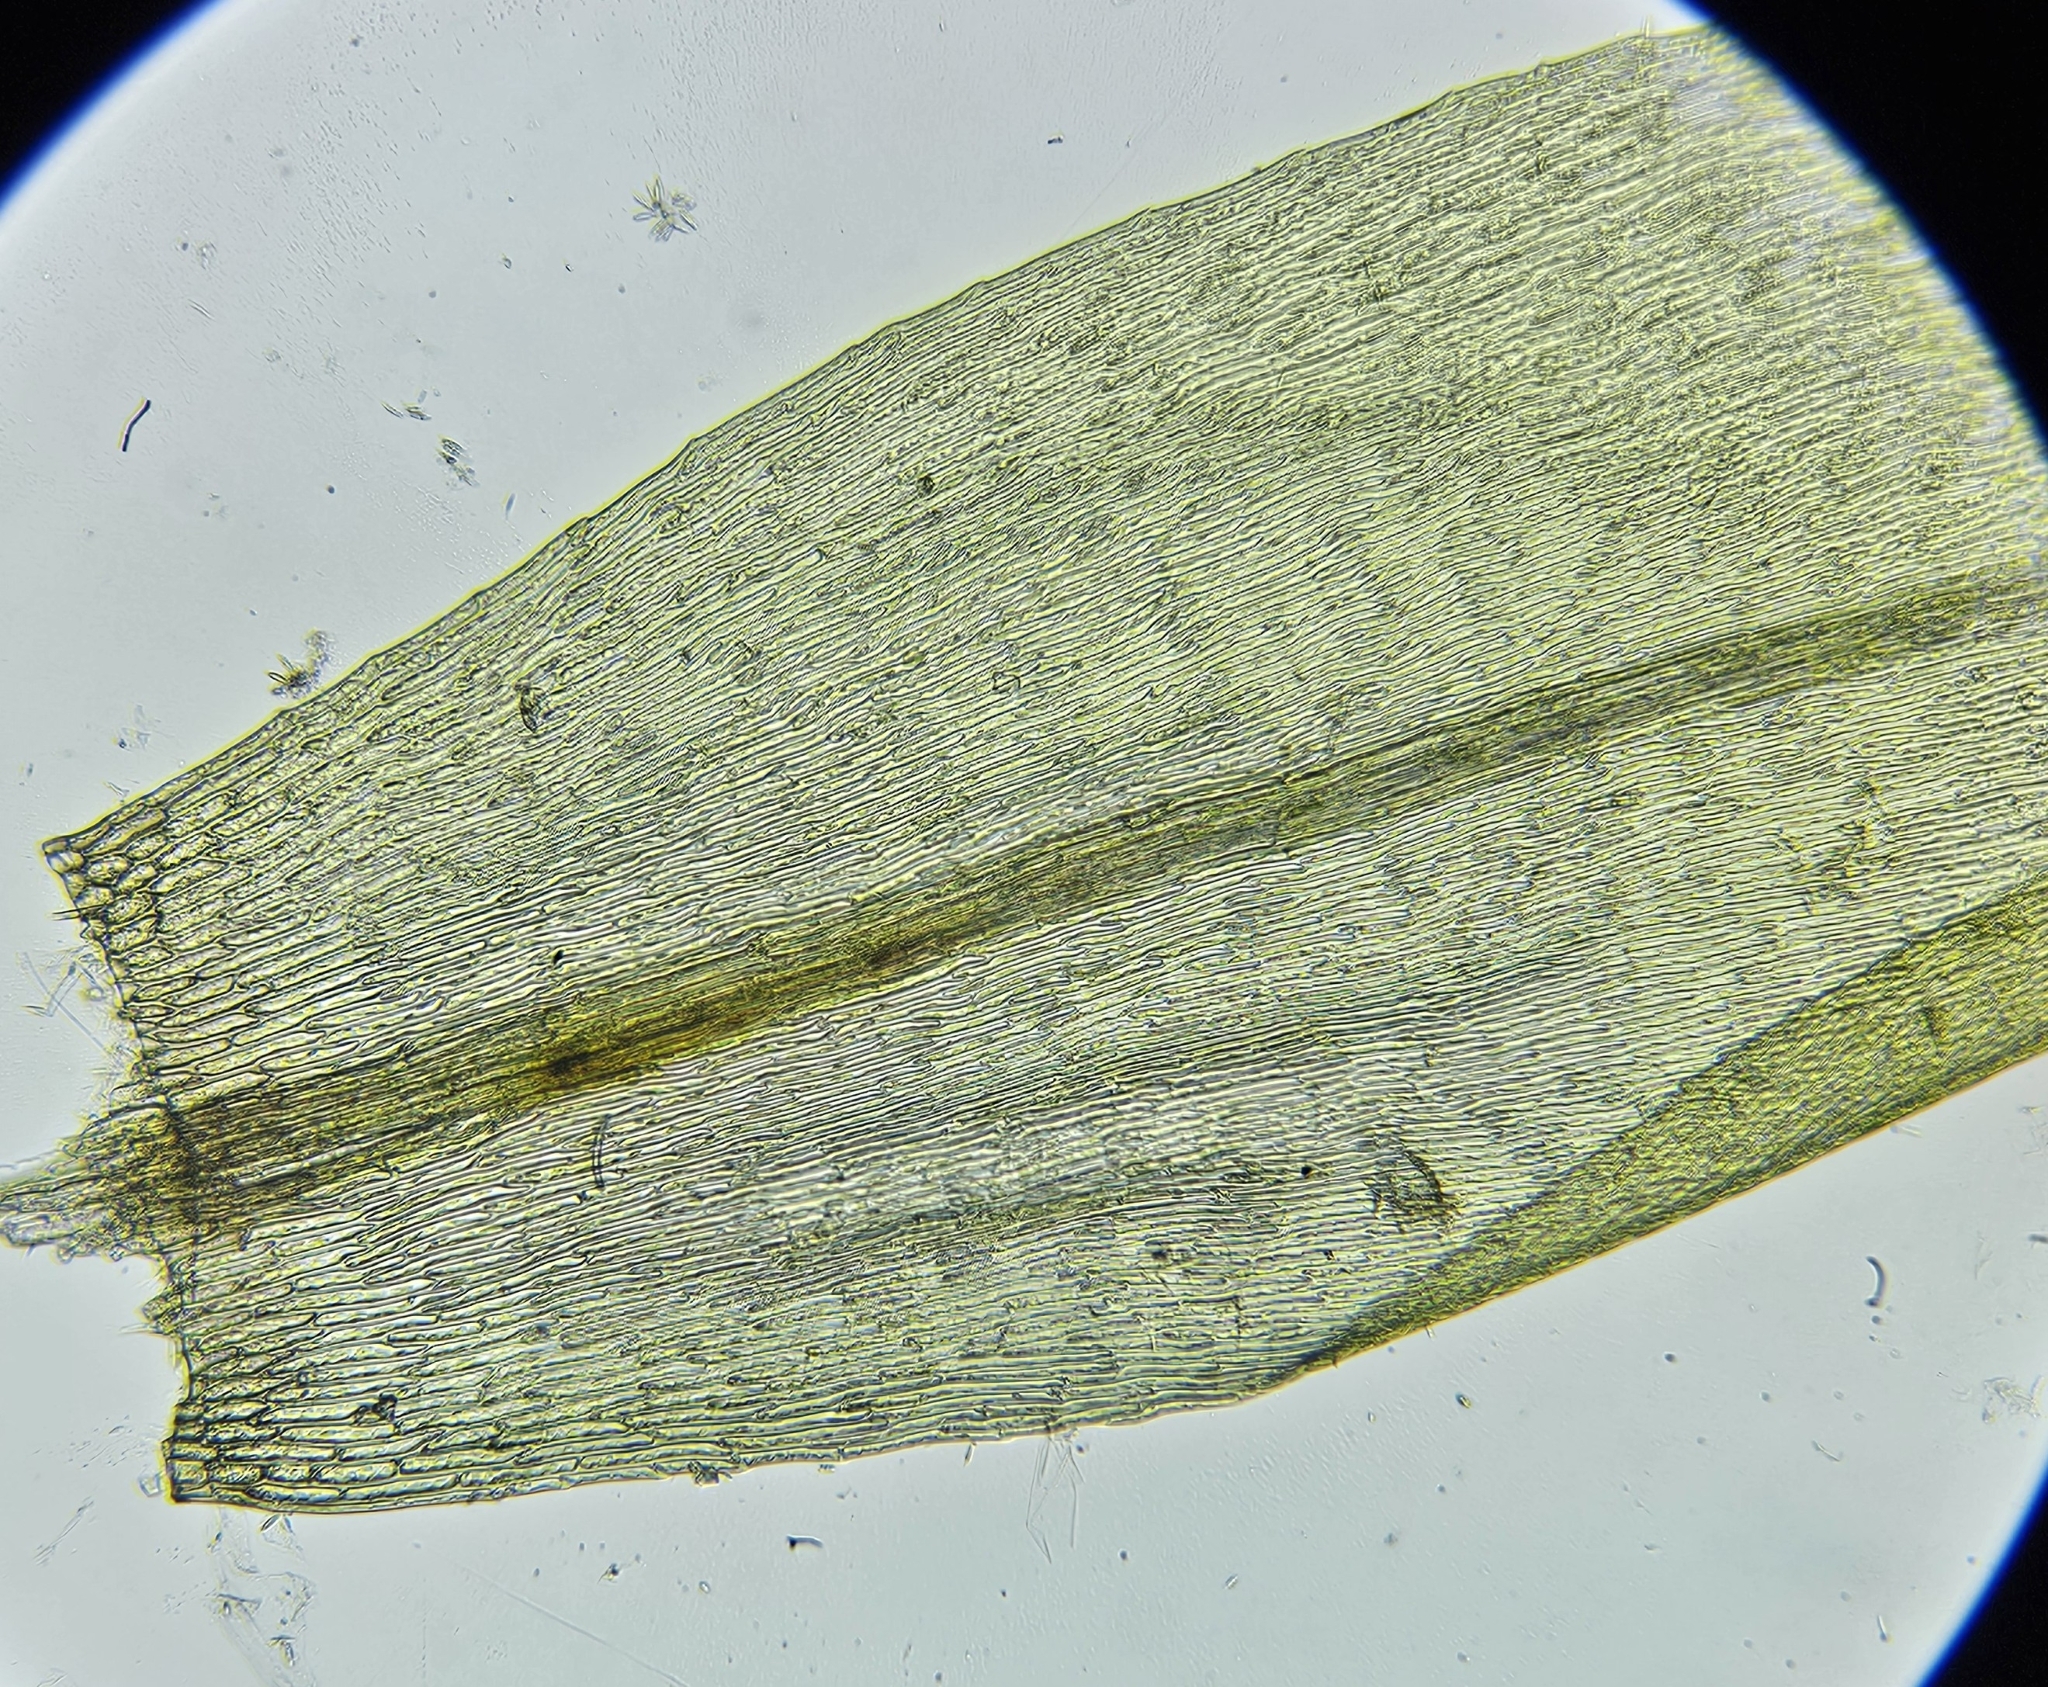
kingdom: Plantae
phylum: Bryophyta
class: Bryopsida
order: Hypnales
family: Calliergonaceae
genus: Warnstorfia
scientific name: Warnstorfia fluitans
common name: Floating hook moss
